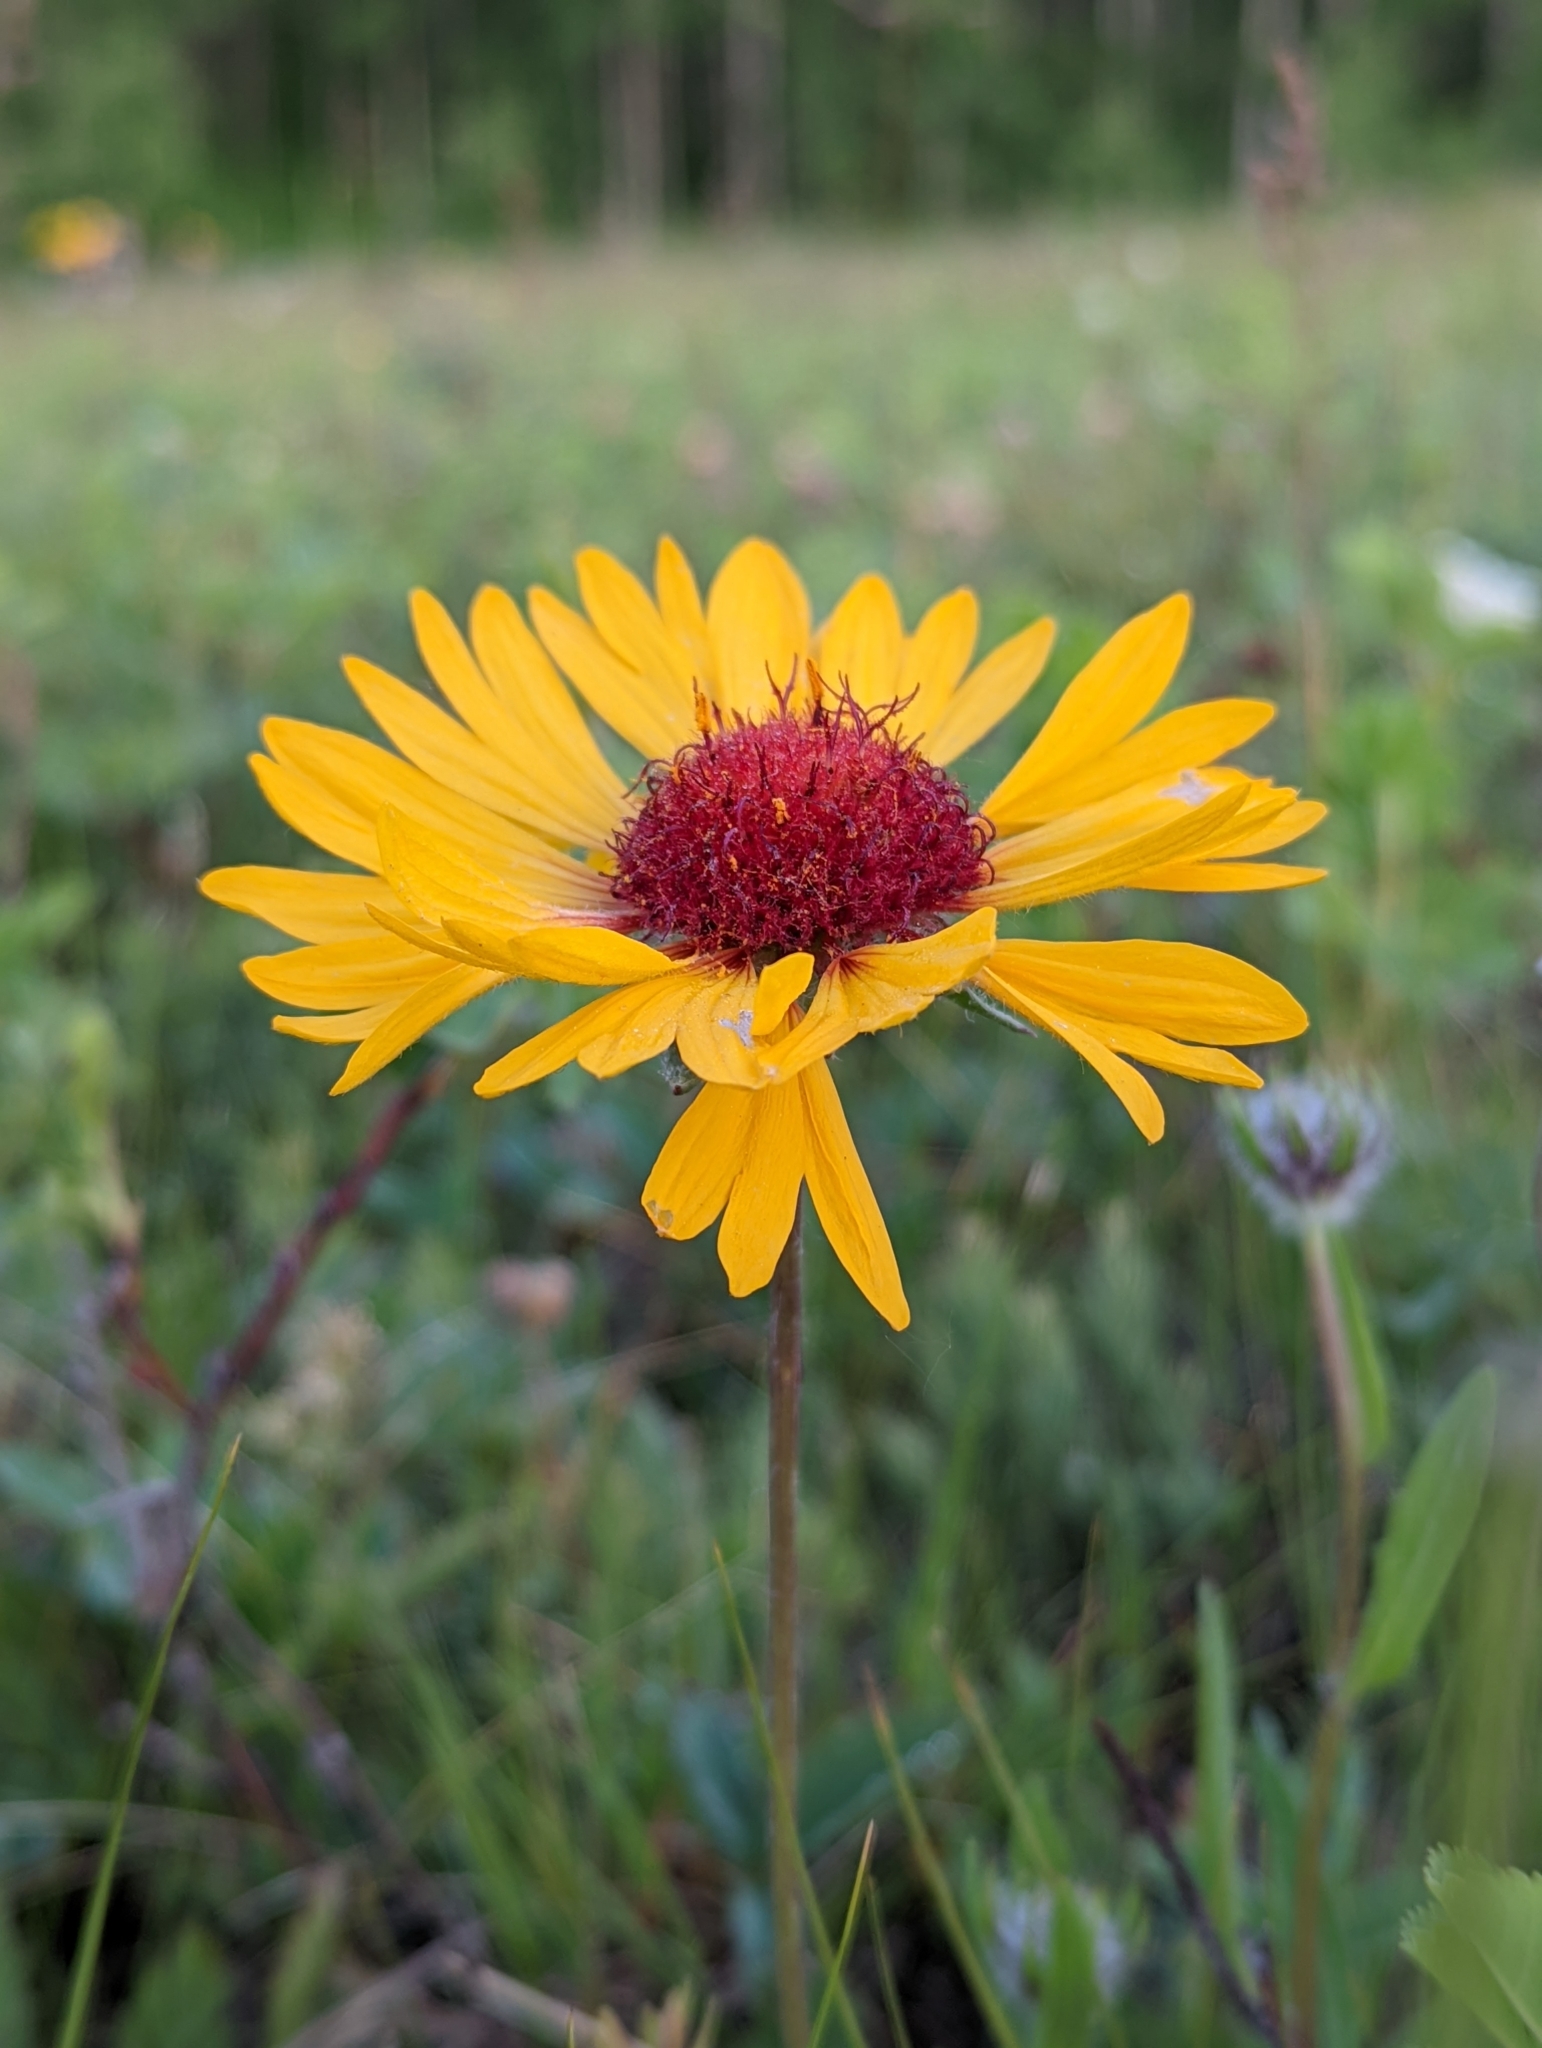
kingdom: Plantae
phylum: Tracheophyta
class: Magnoliopsida
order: Asterales
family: Asteraceae
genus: Gaillardia
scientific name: Gaillardia aristata
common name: Blanket-flower
